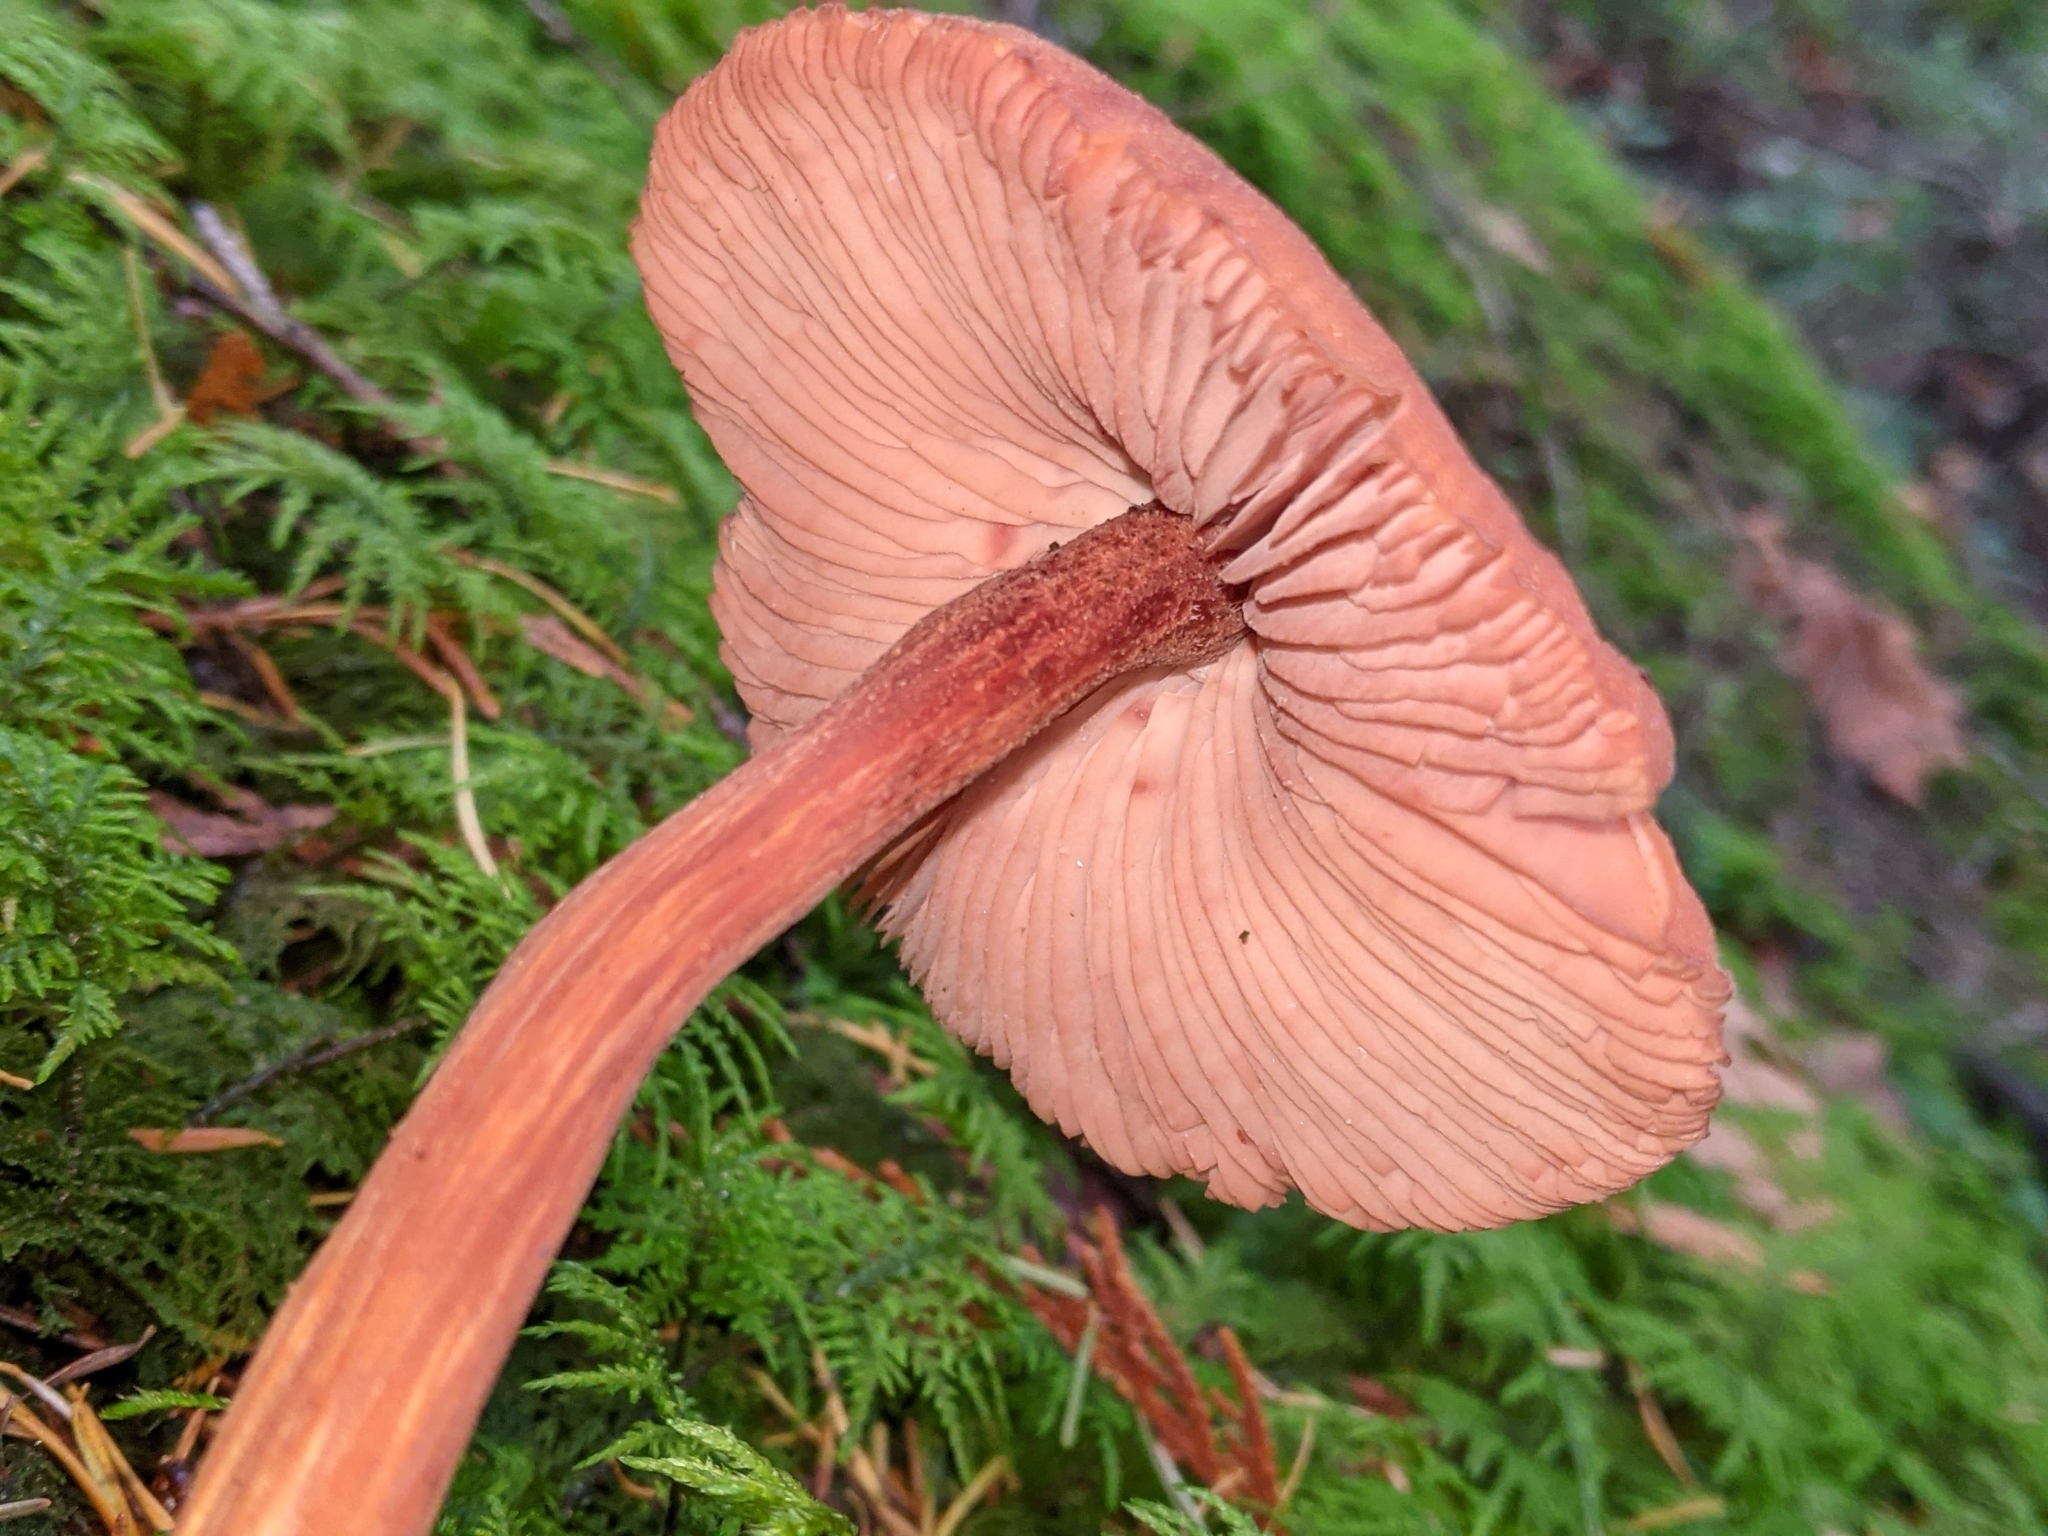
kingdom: Fungi
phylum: Basidiomycota
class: Agaricomycetes
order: Agaricales
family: Hydnangiaceae
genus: Laccaria
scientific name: Laccaria laccata
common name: Deceiver
